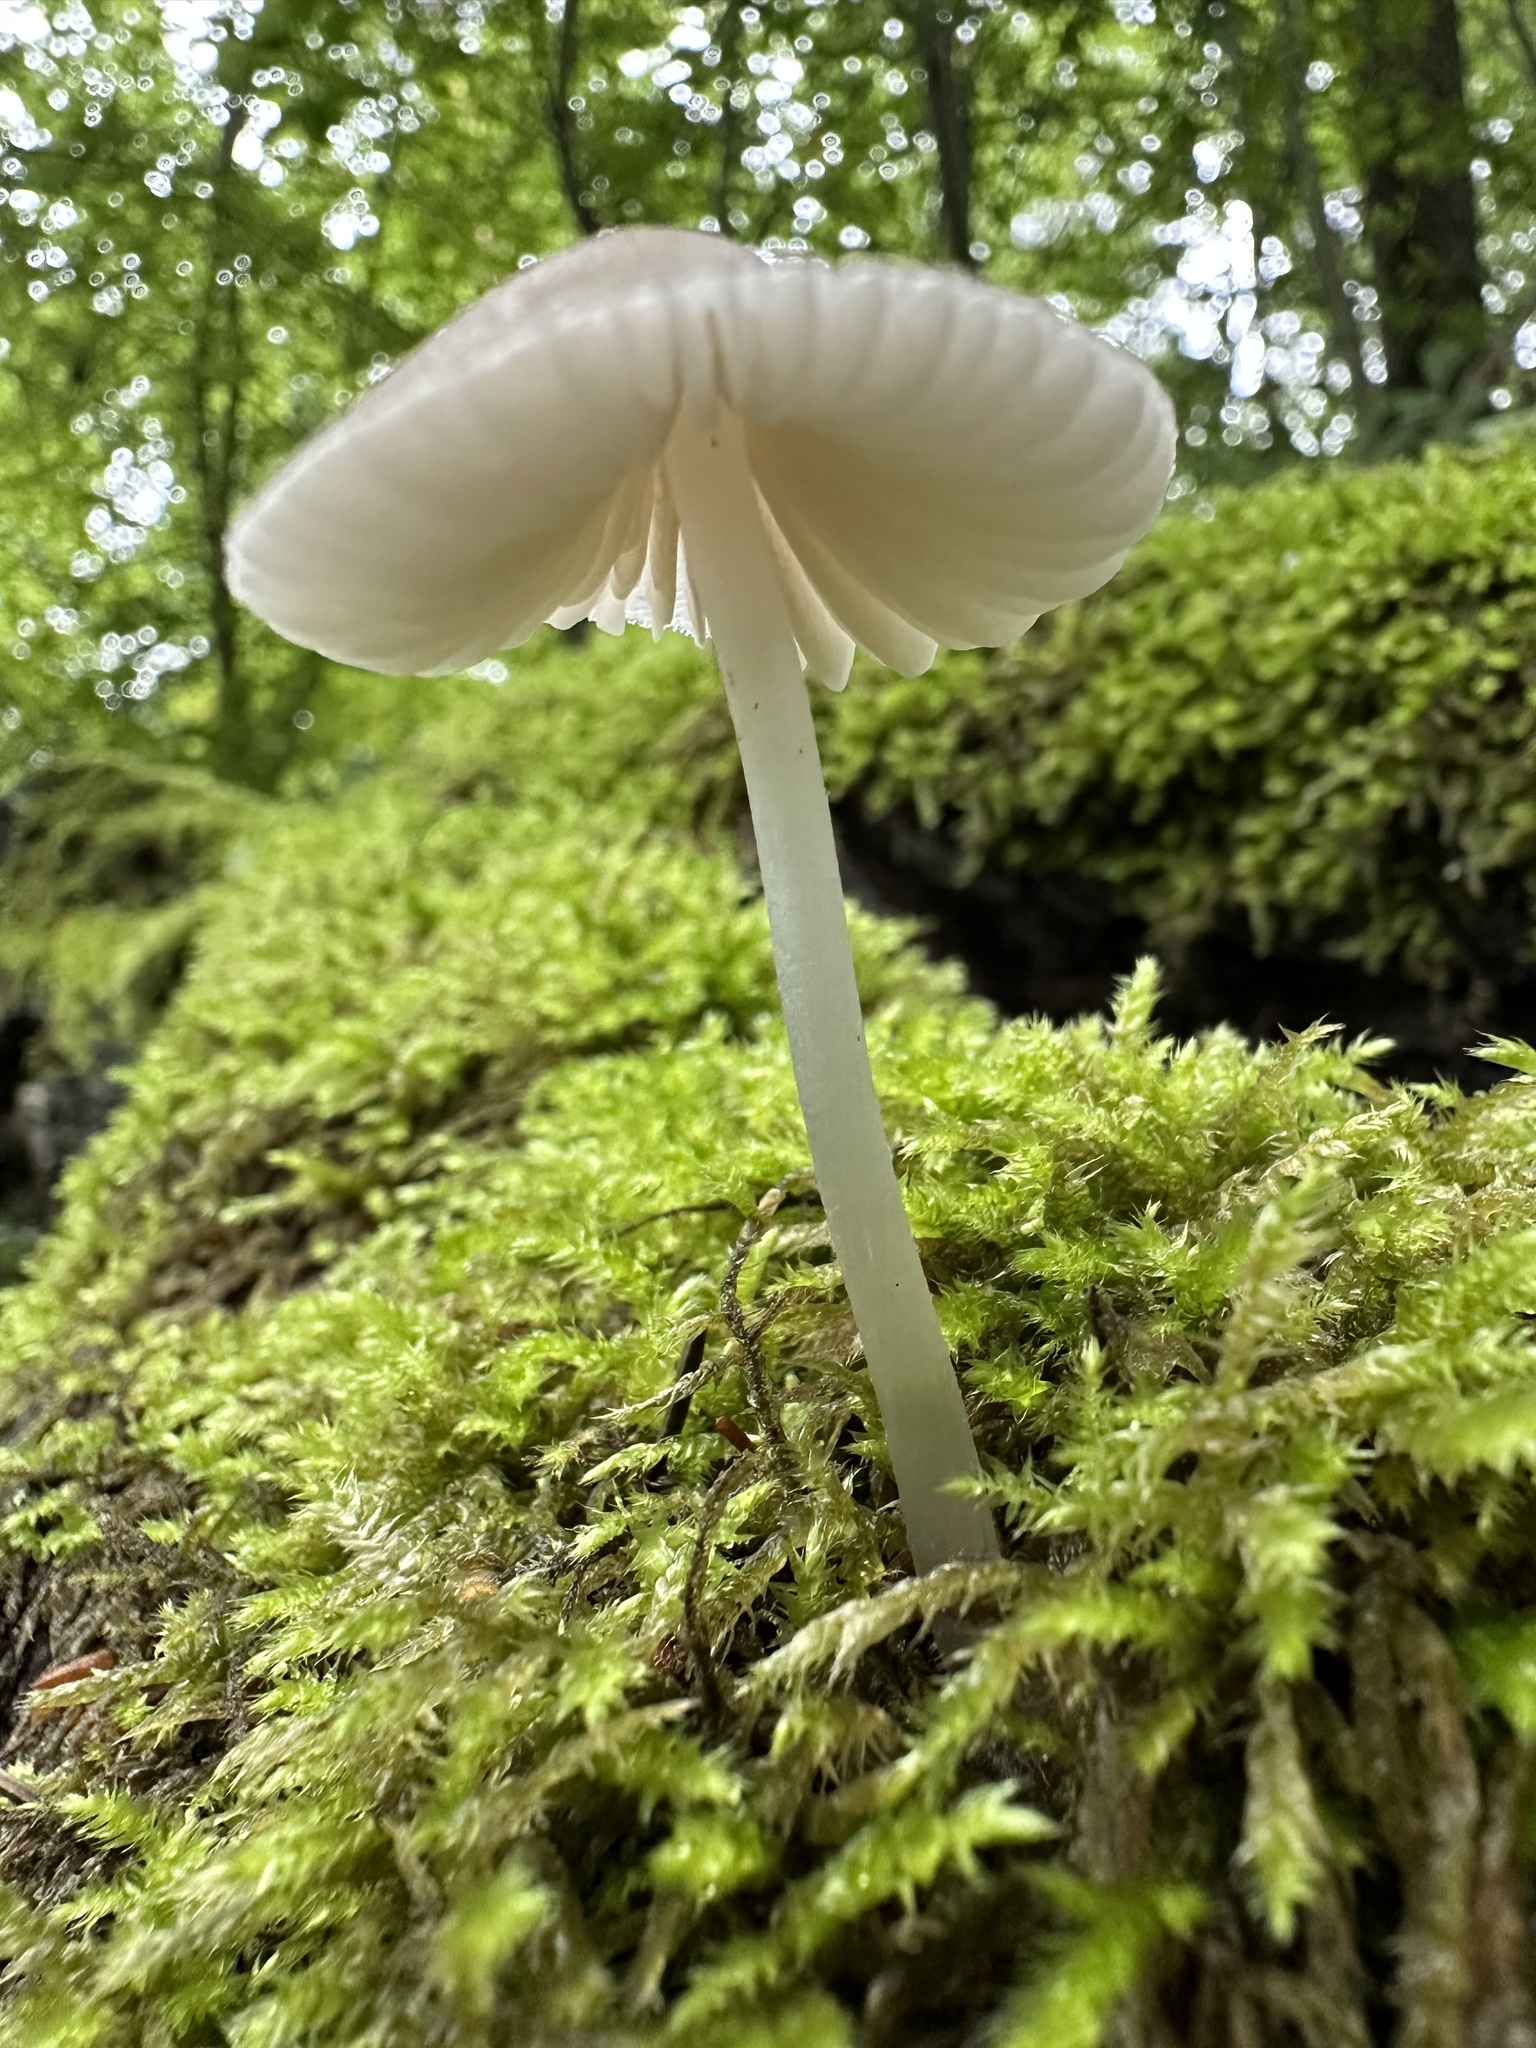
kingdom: Fungi
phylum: Basidiomycota
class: Agaricomycetes
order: Agaricales
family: Mycenaceae
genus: Mycena
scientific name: Mycena galericulata
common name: Bonnet mycena
